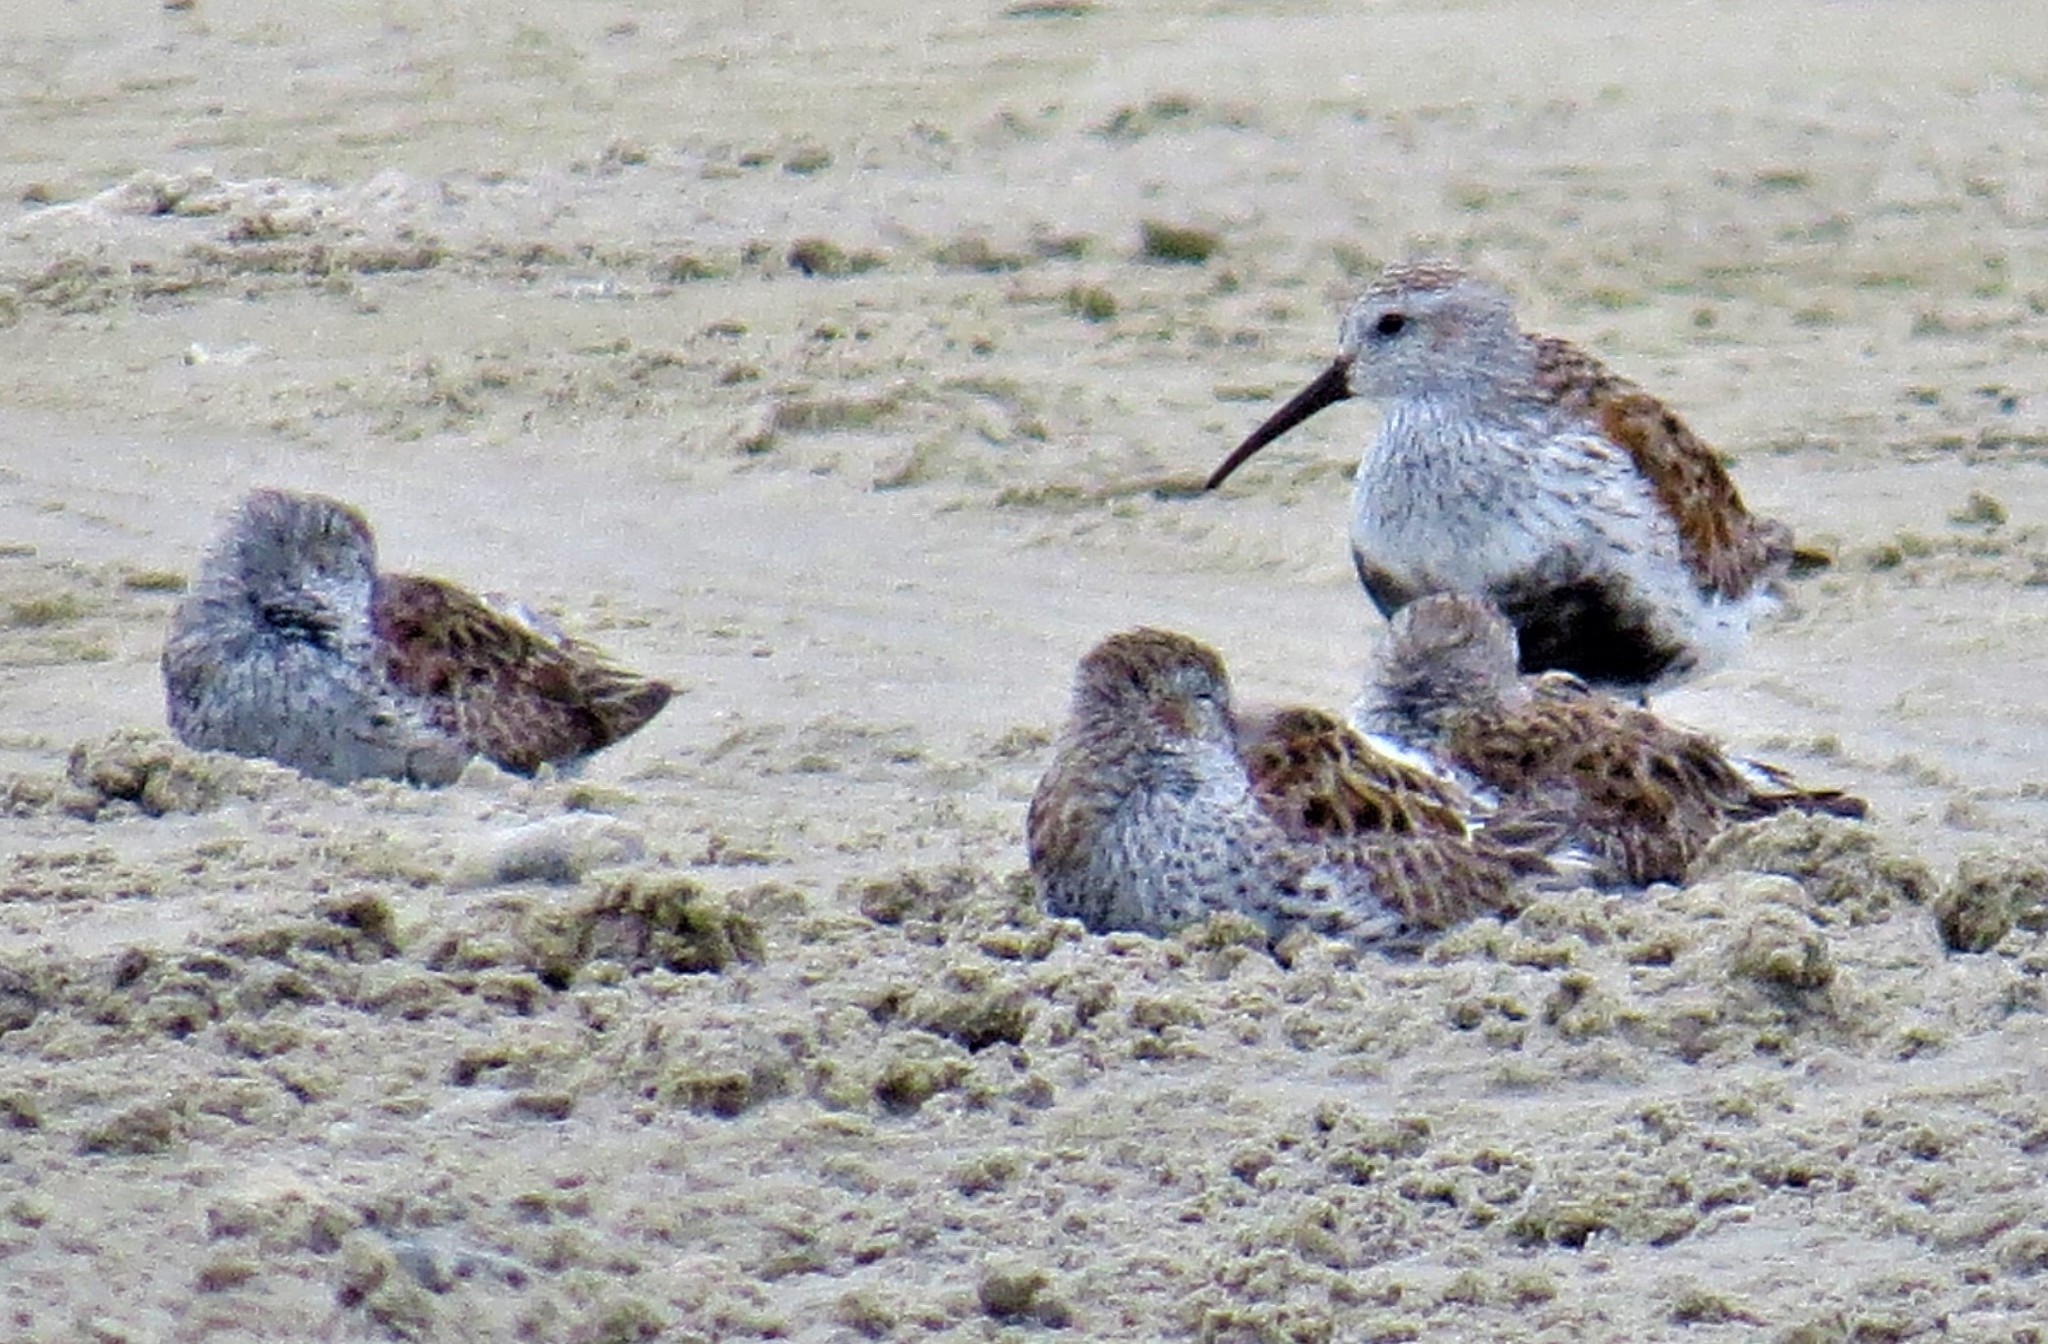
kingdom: Animalia
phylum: Chordata
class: Aves
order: Charadriiformes
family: Scolopacidae
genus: Calidris
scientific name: Calidris alpina
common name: Dunlin
